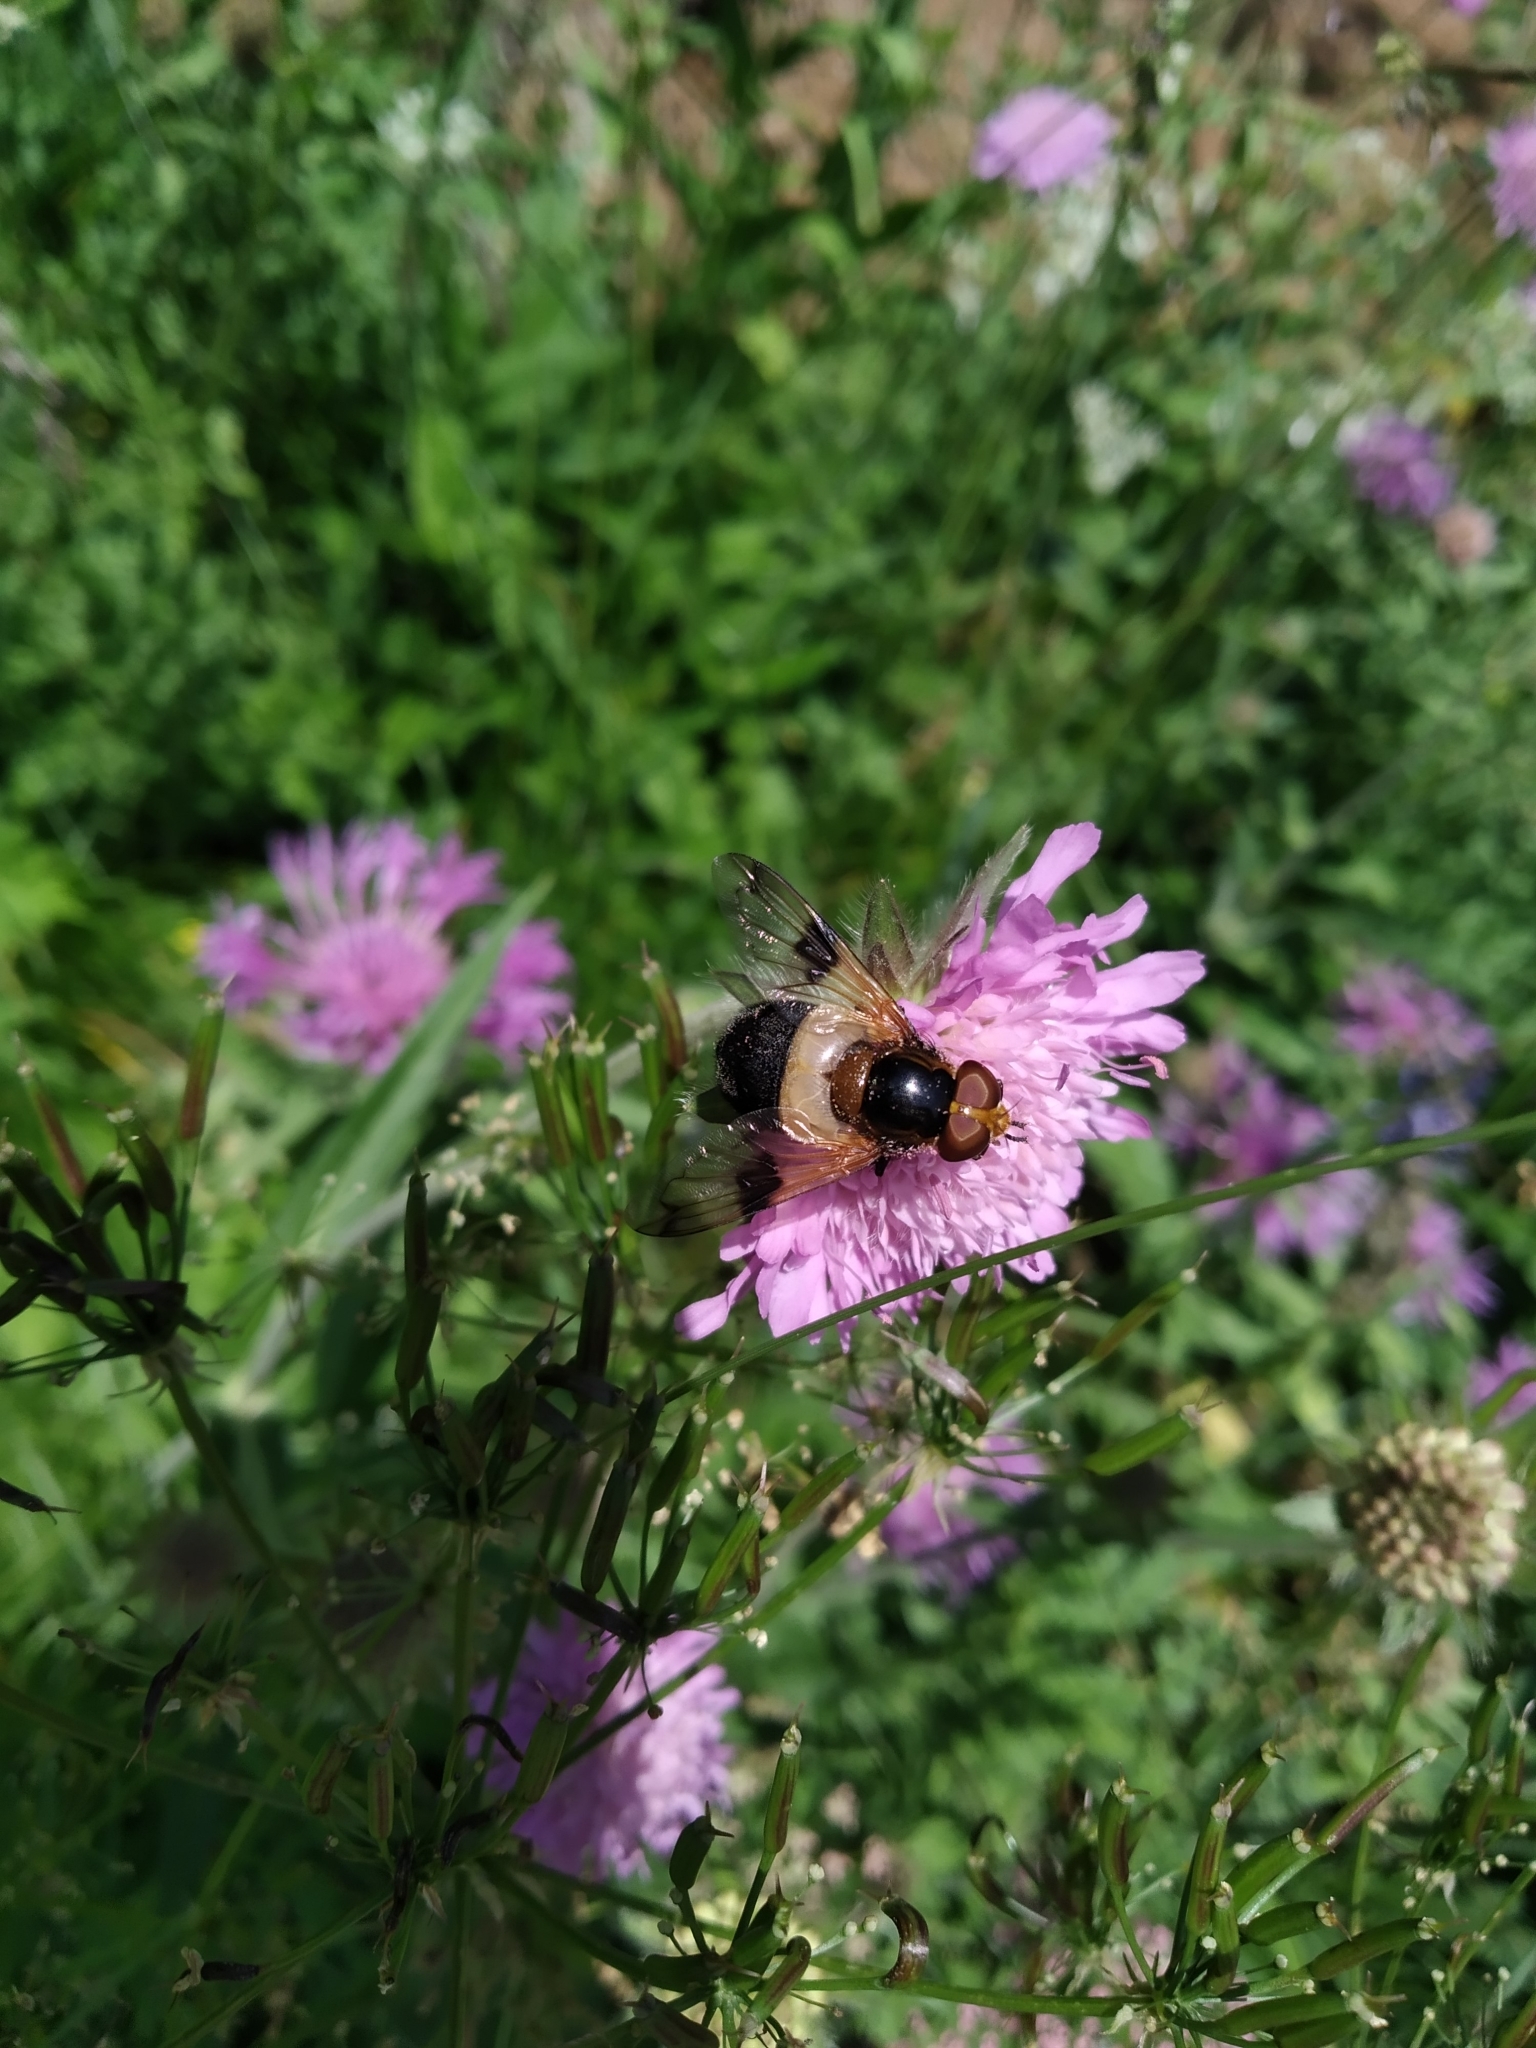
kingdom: Animalia
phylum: Arthropoda
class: Insecta
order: Diptera
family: Syrphidae
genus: Volucella
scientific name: Volucella pellucens
